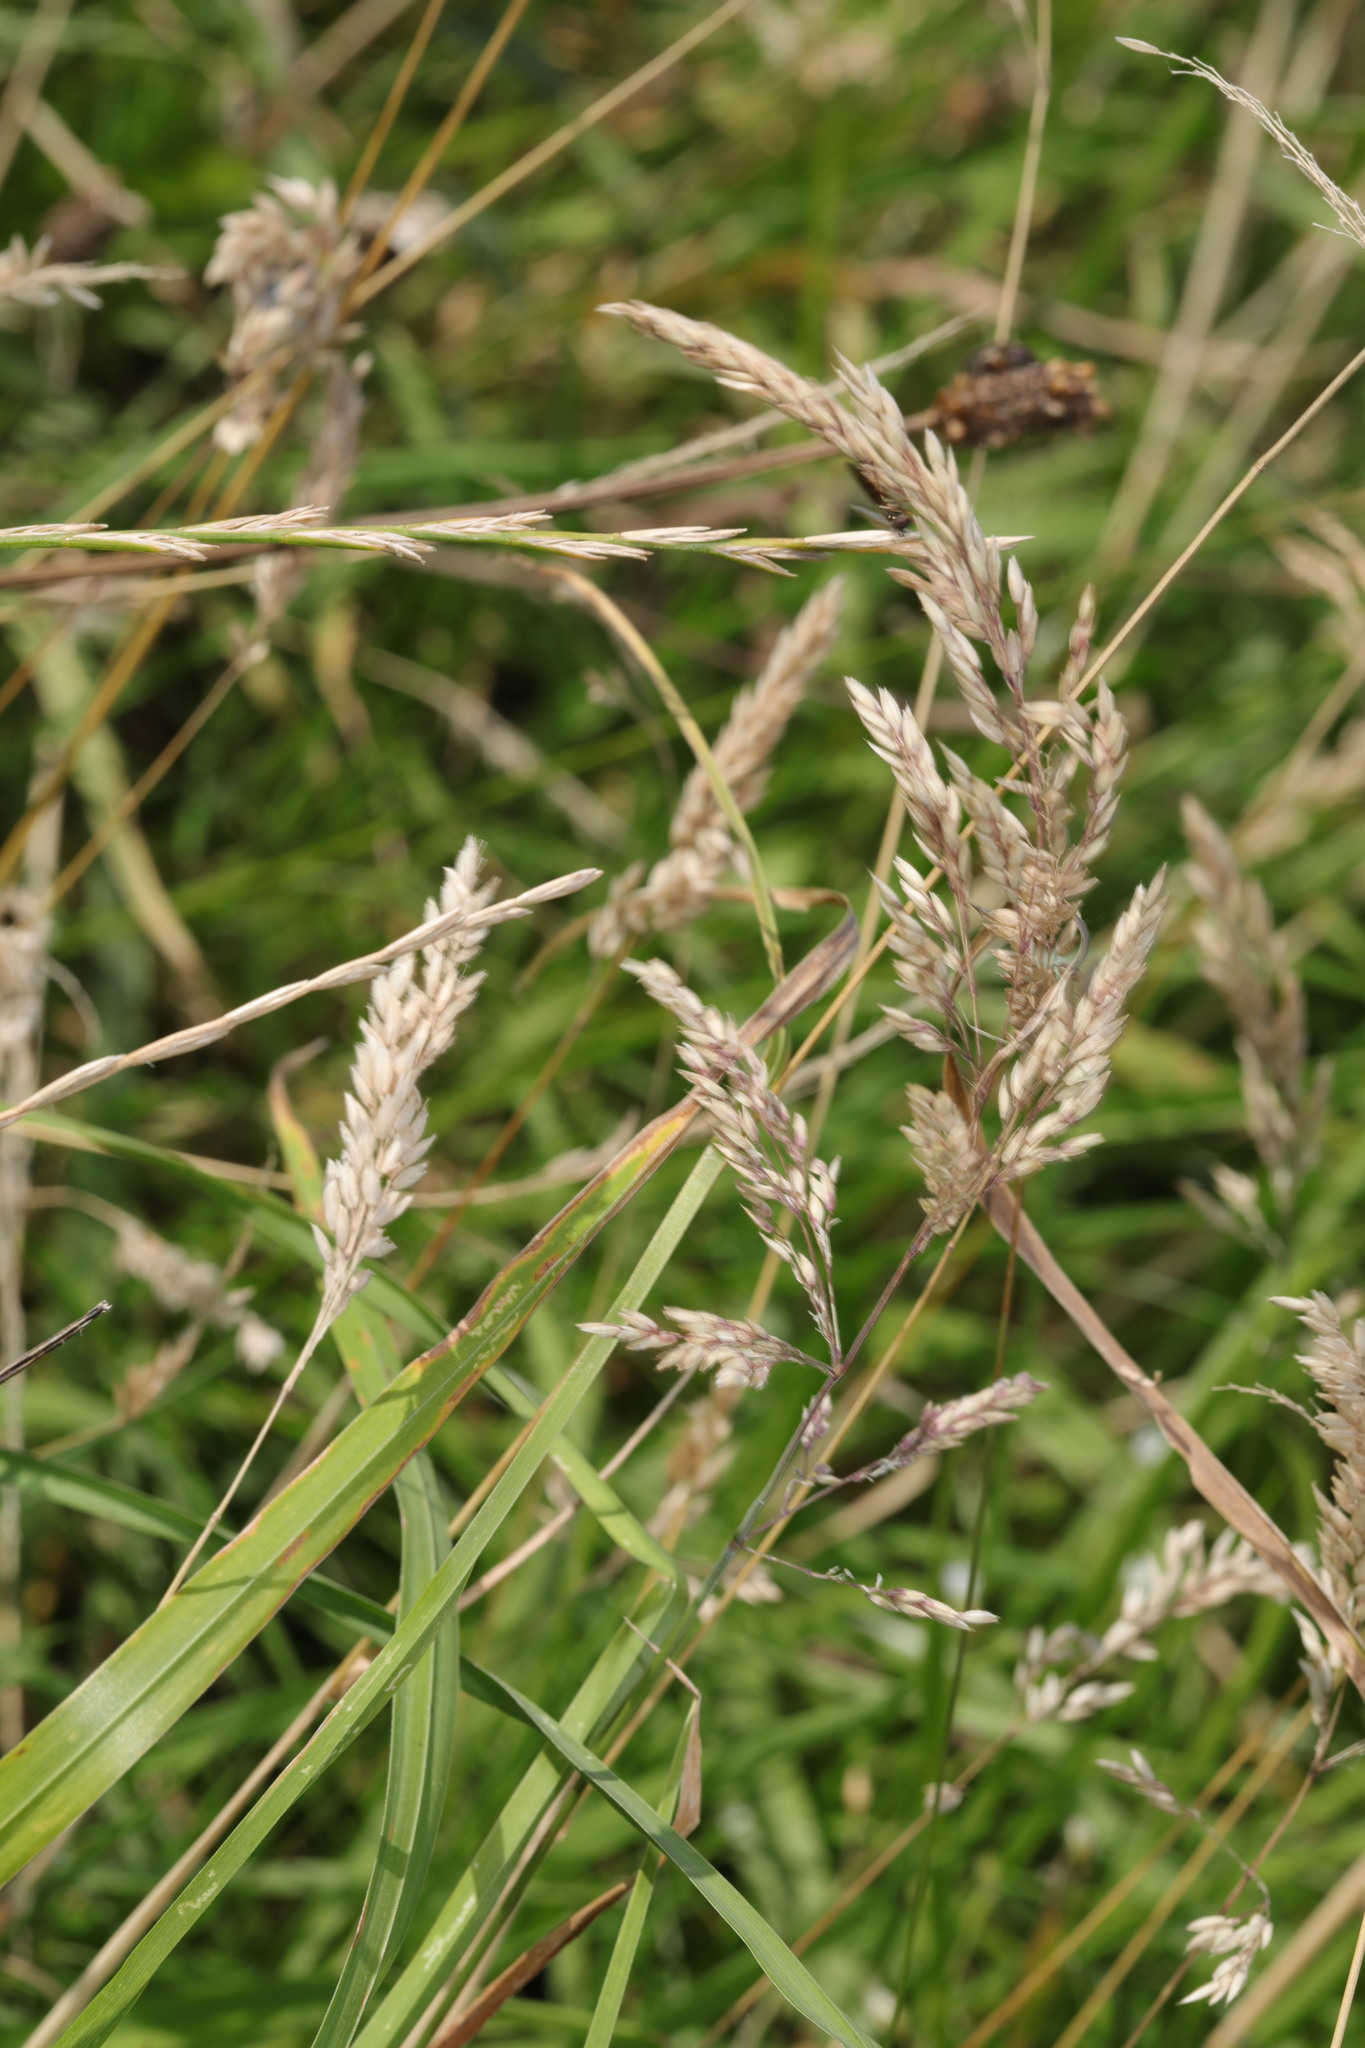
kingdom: Plantae
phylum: Tracheophyta
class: Liliopsida
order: Poales
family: Poaceae
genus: Holcus
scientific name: Holcus lanatus
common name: Yorkshire-fog
